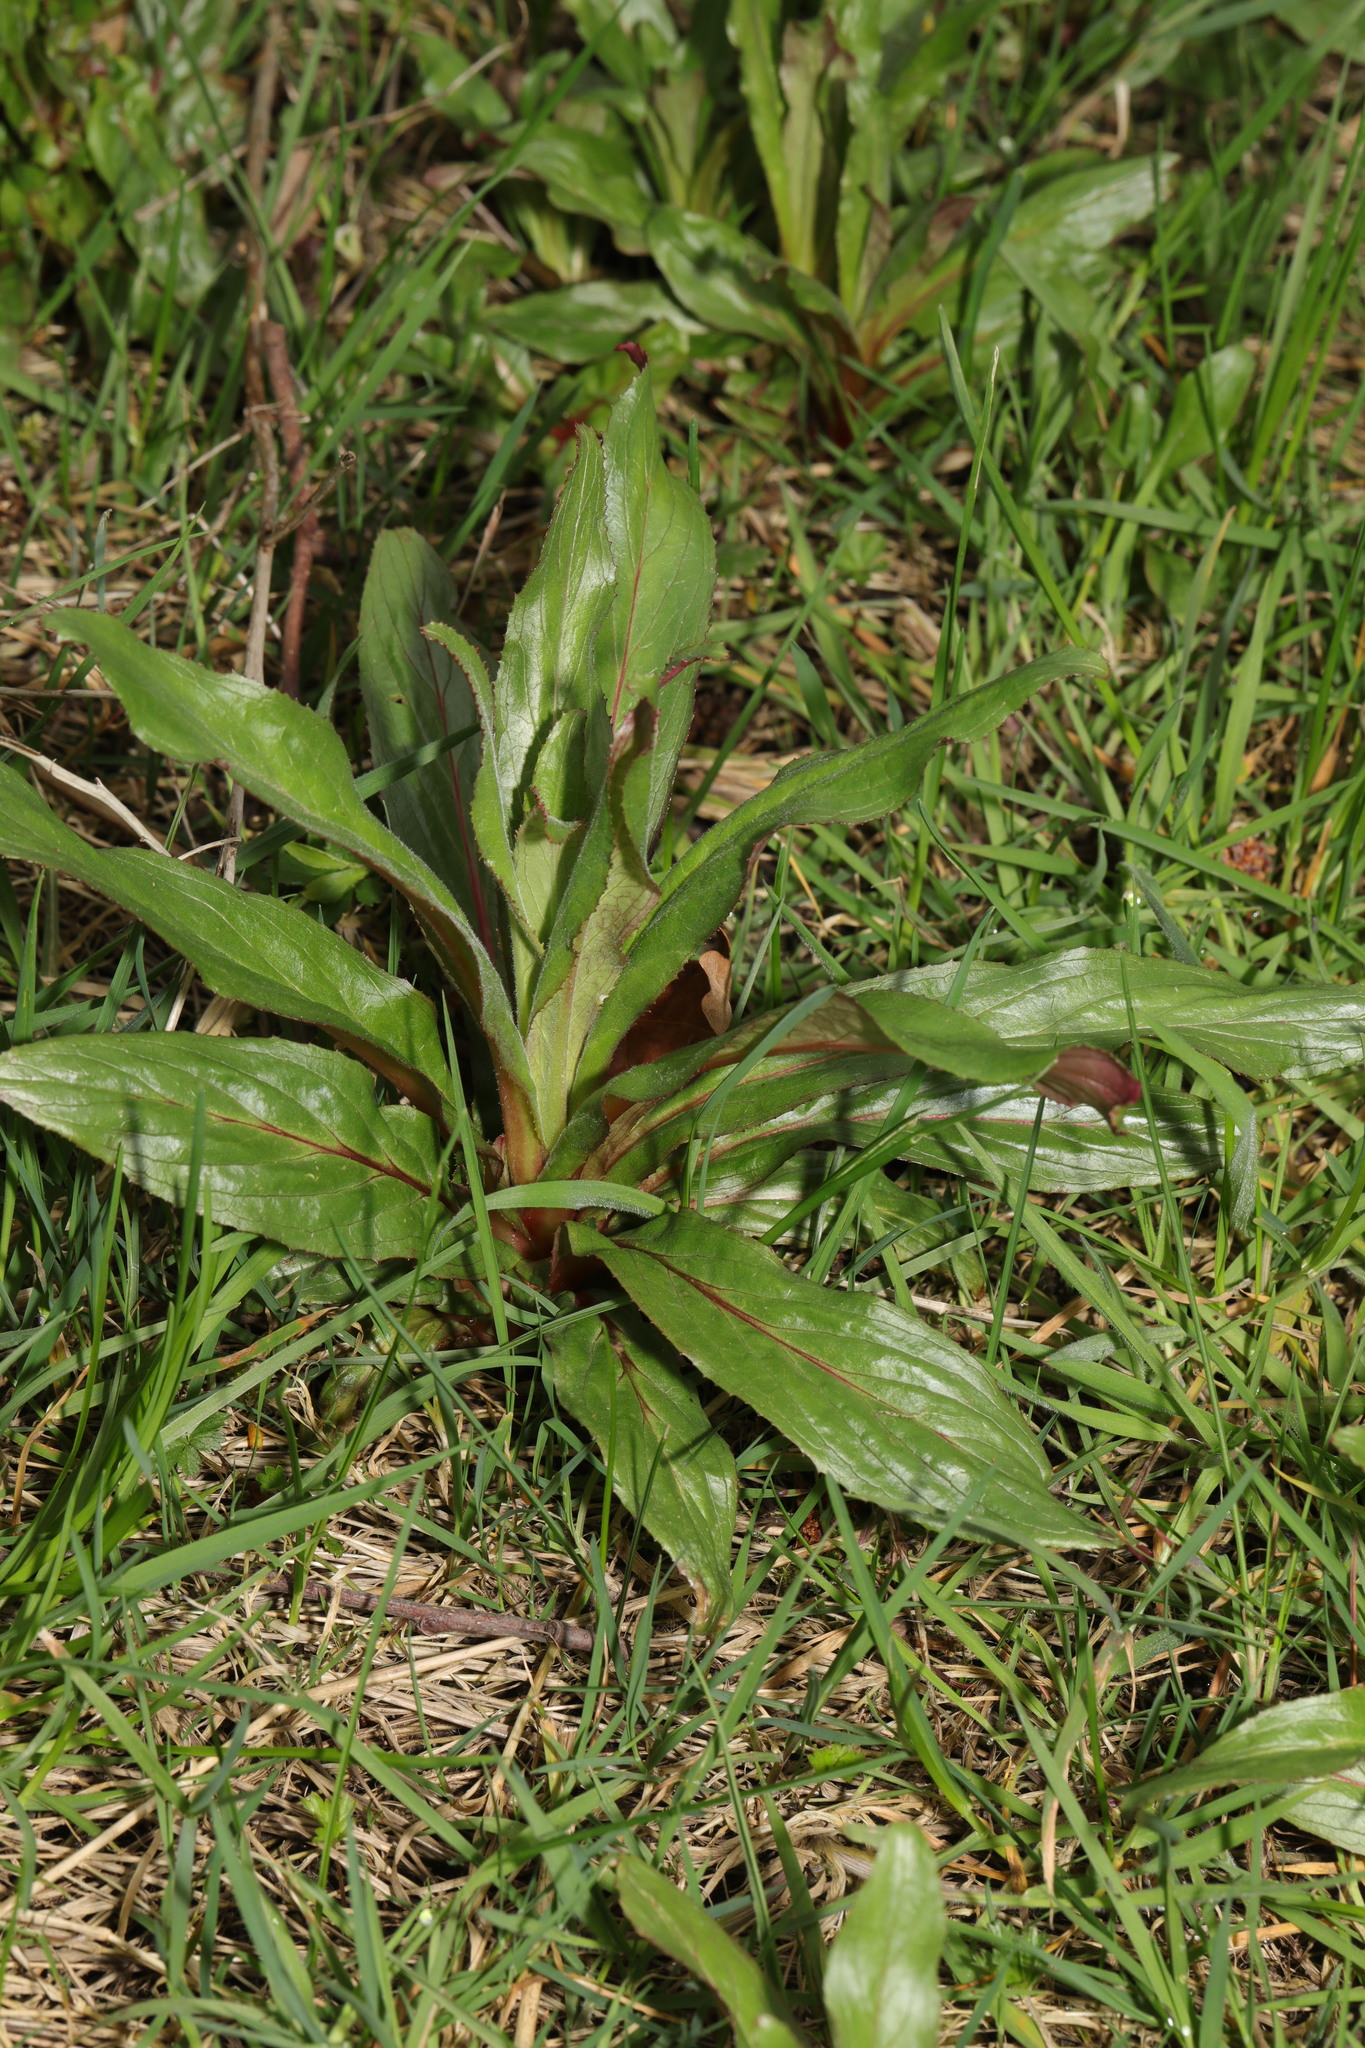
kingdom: Plantae
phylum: Tracheophyta
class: Magnoliopsida
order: Lamiales
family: Plantaginaceae
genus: Plantago
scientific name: Plantago lanceolata
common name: Ribwort plantain
